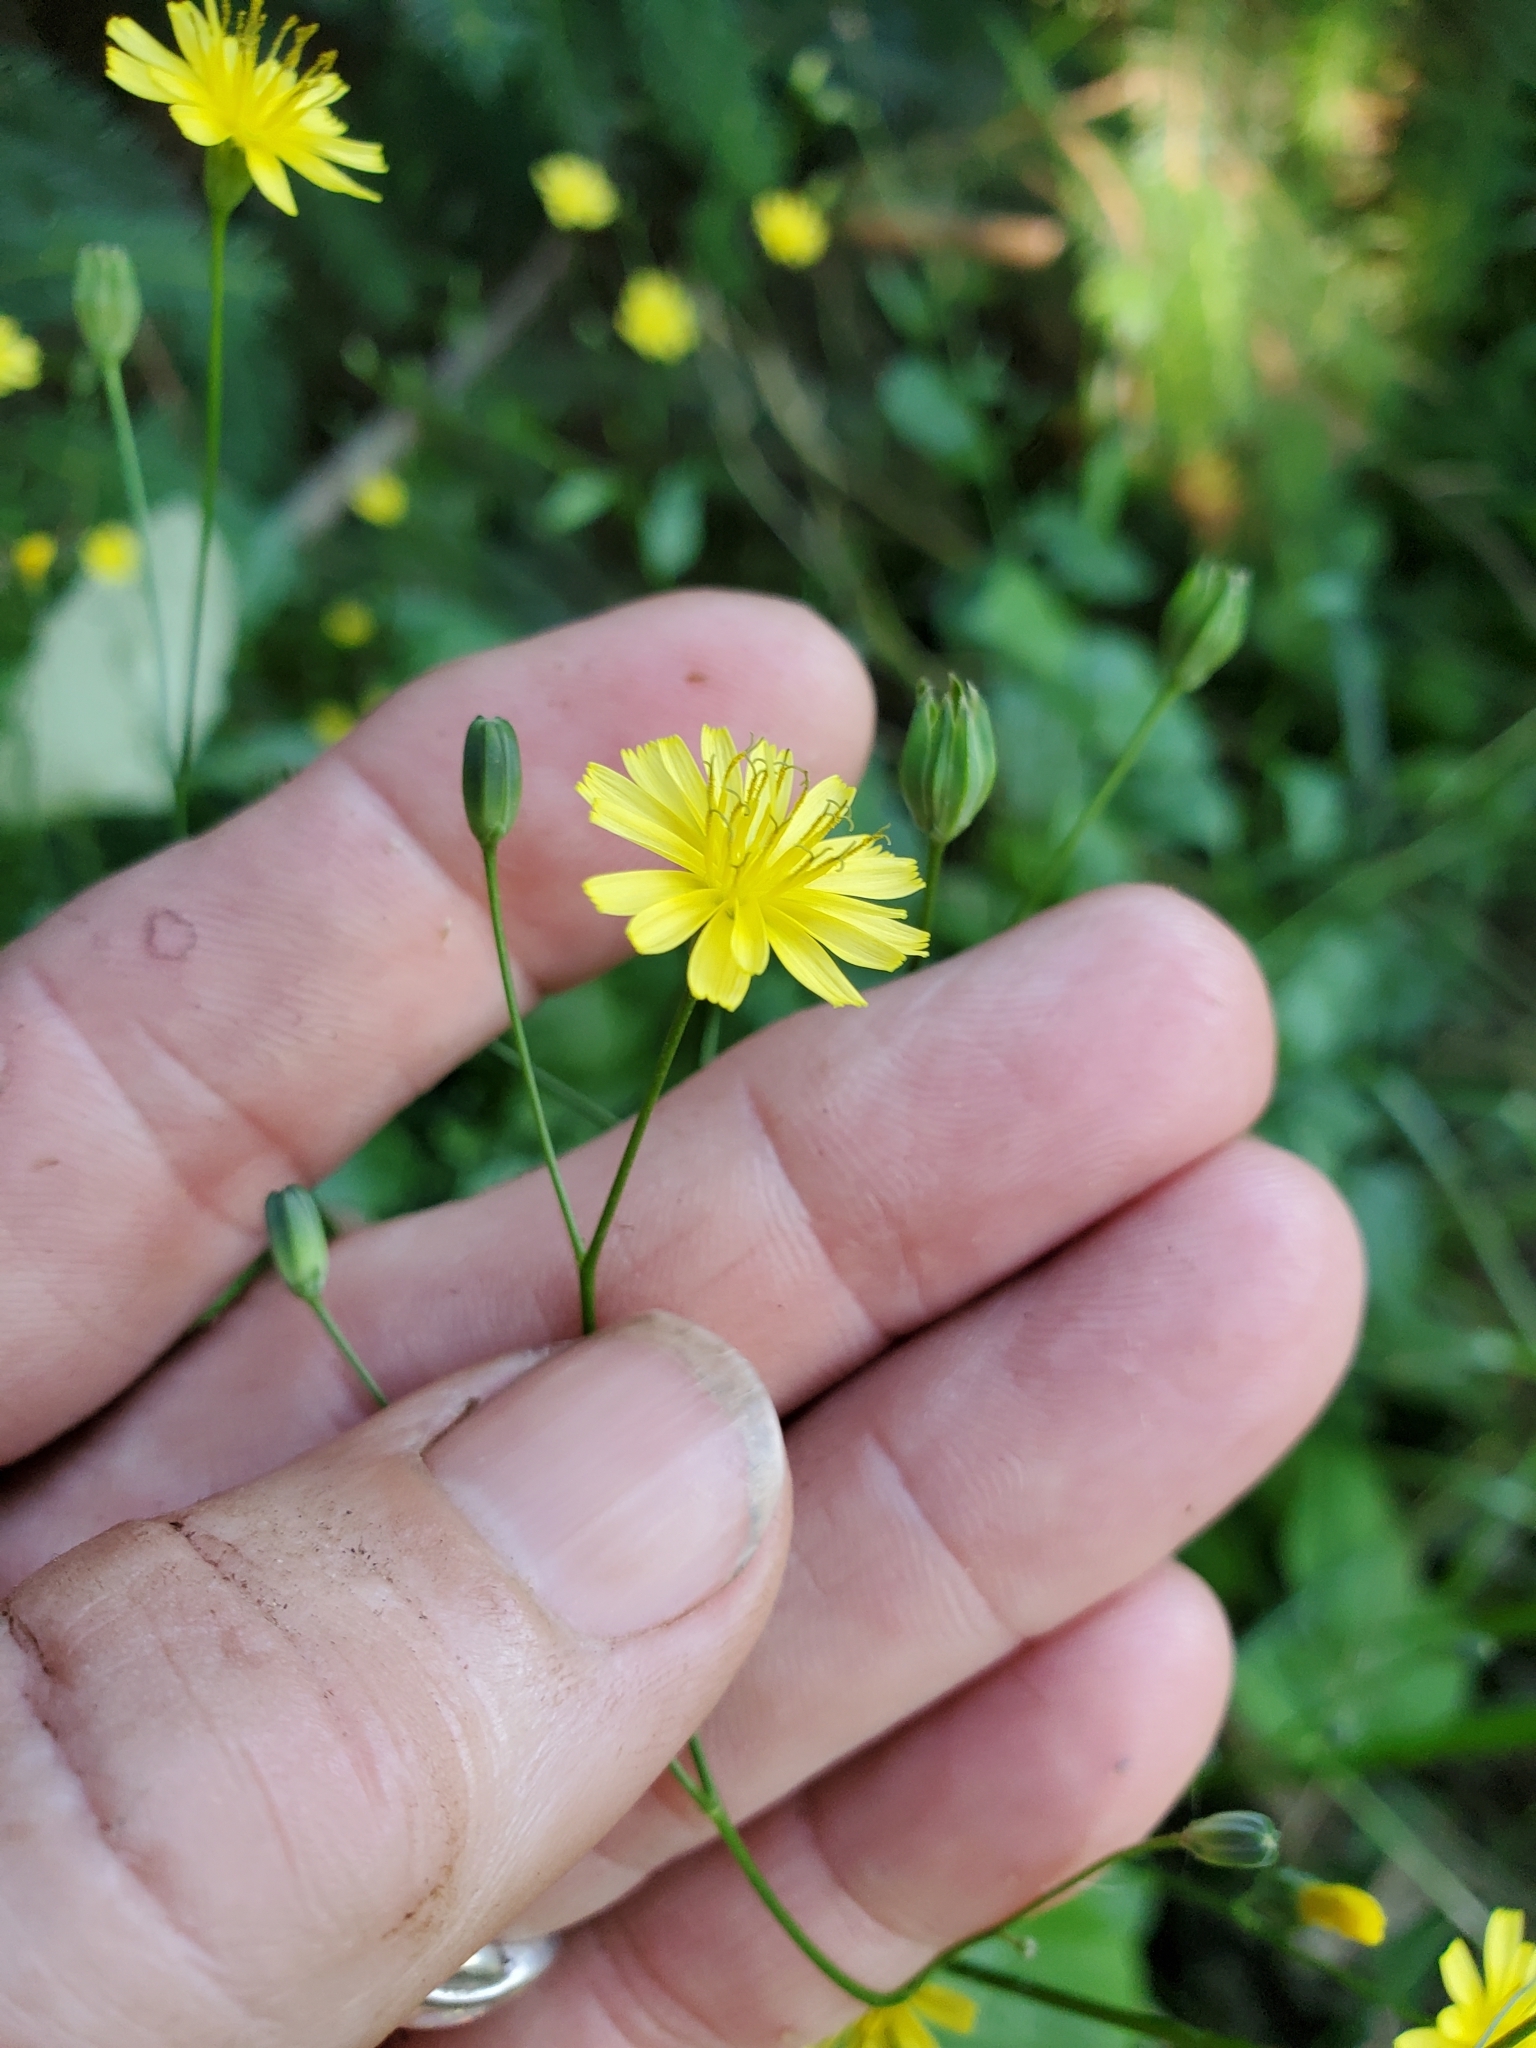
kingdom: Plantae
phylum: Tracheophyta
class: Magnoliopsida
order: Asterales
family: Asteraceae
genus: Lapsana
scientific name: Lapsana communis
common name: Nipplewort
